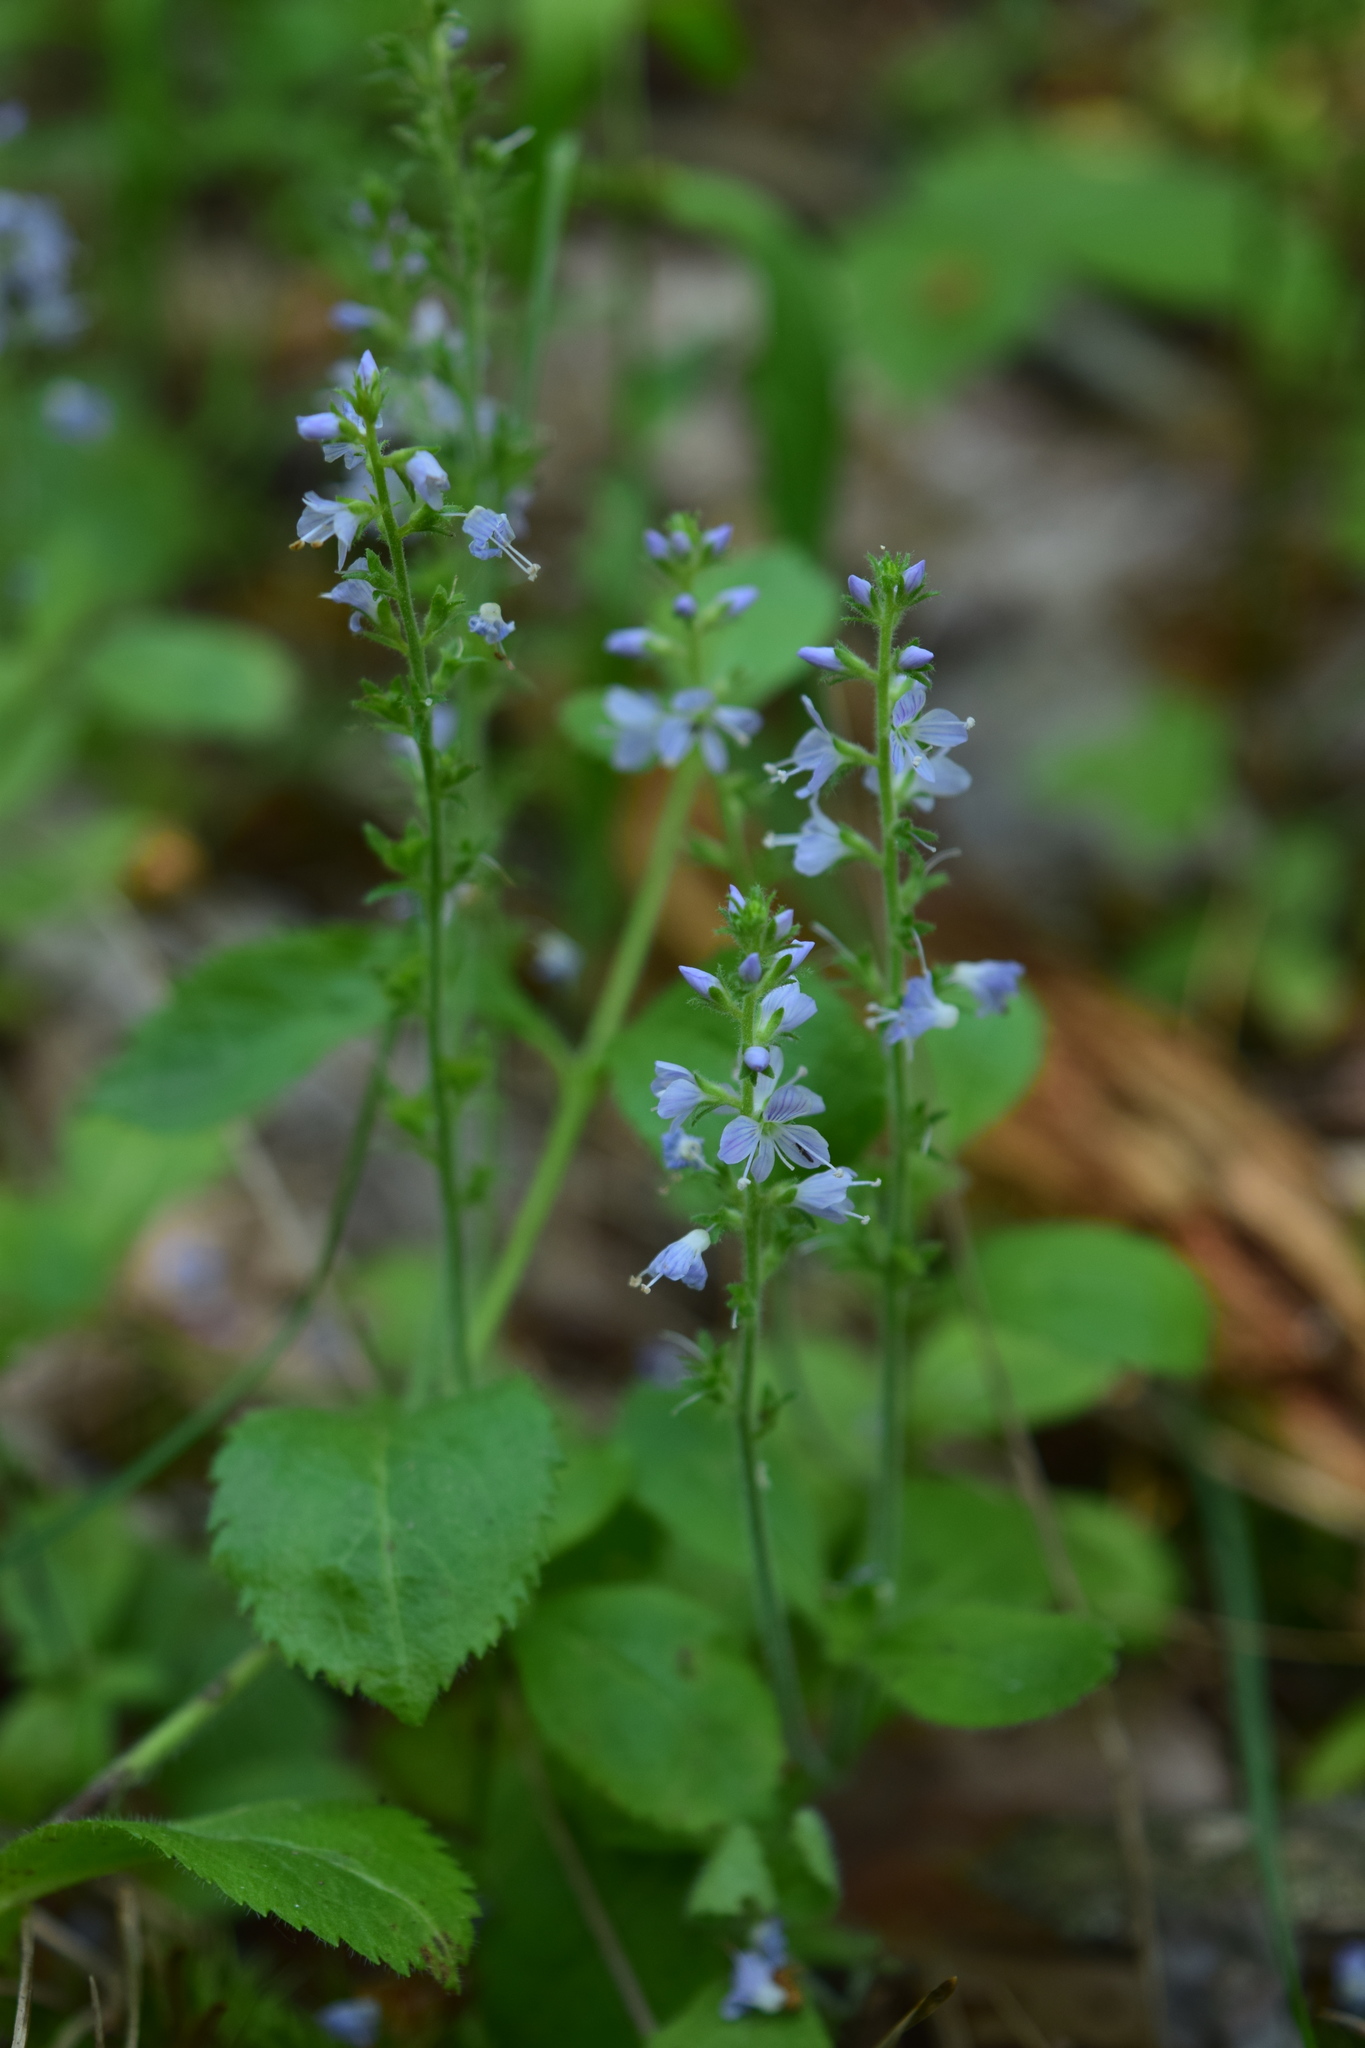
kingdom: Plantae
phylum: Tracheophyta
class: Magnoliopsida
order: Lamiales
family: Plantaginaceae
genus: Veronica
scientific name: Veronica officinalis
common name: Common speedwell
